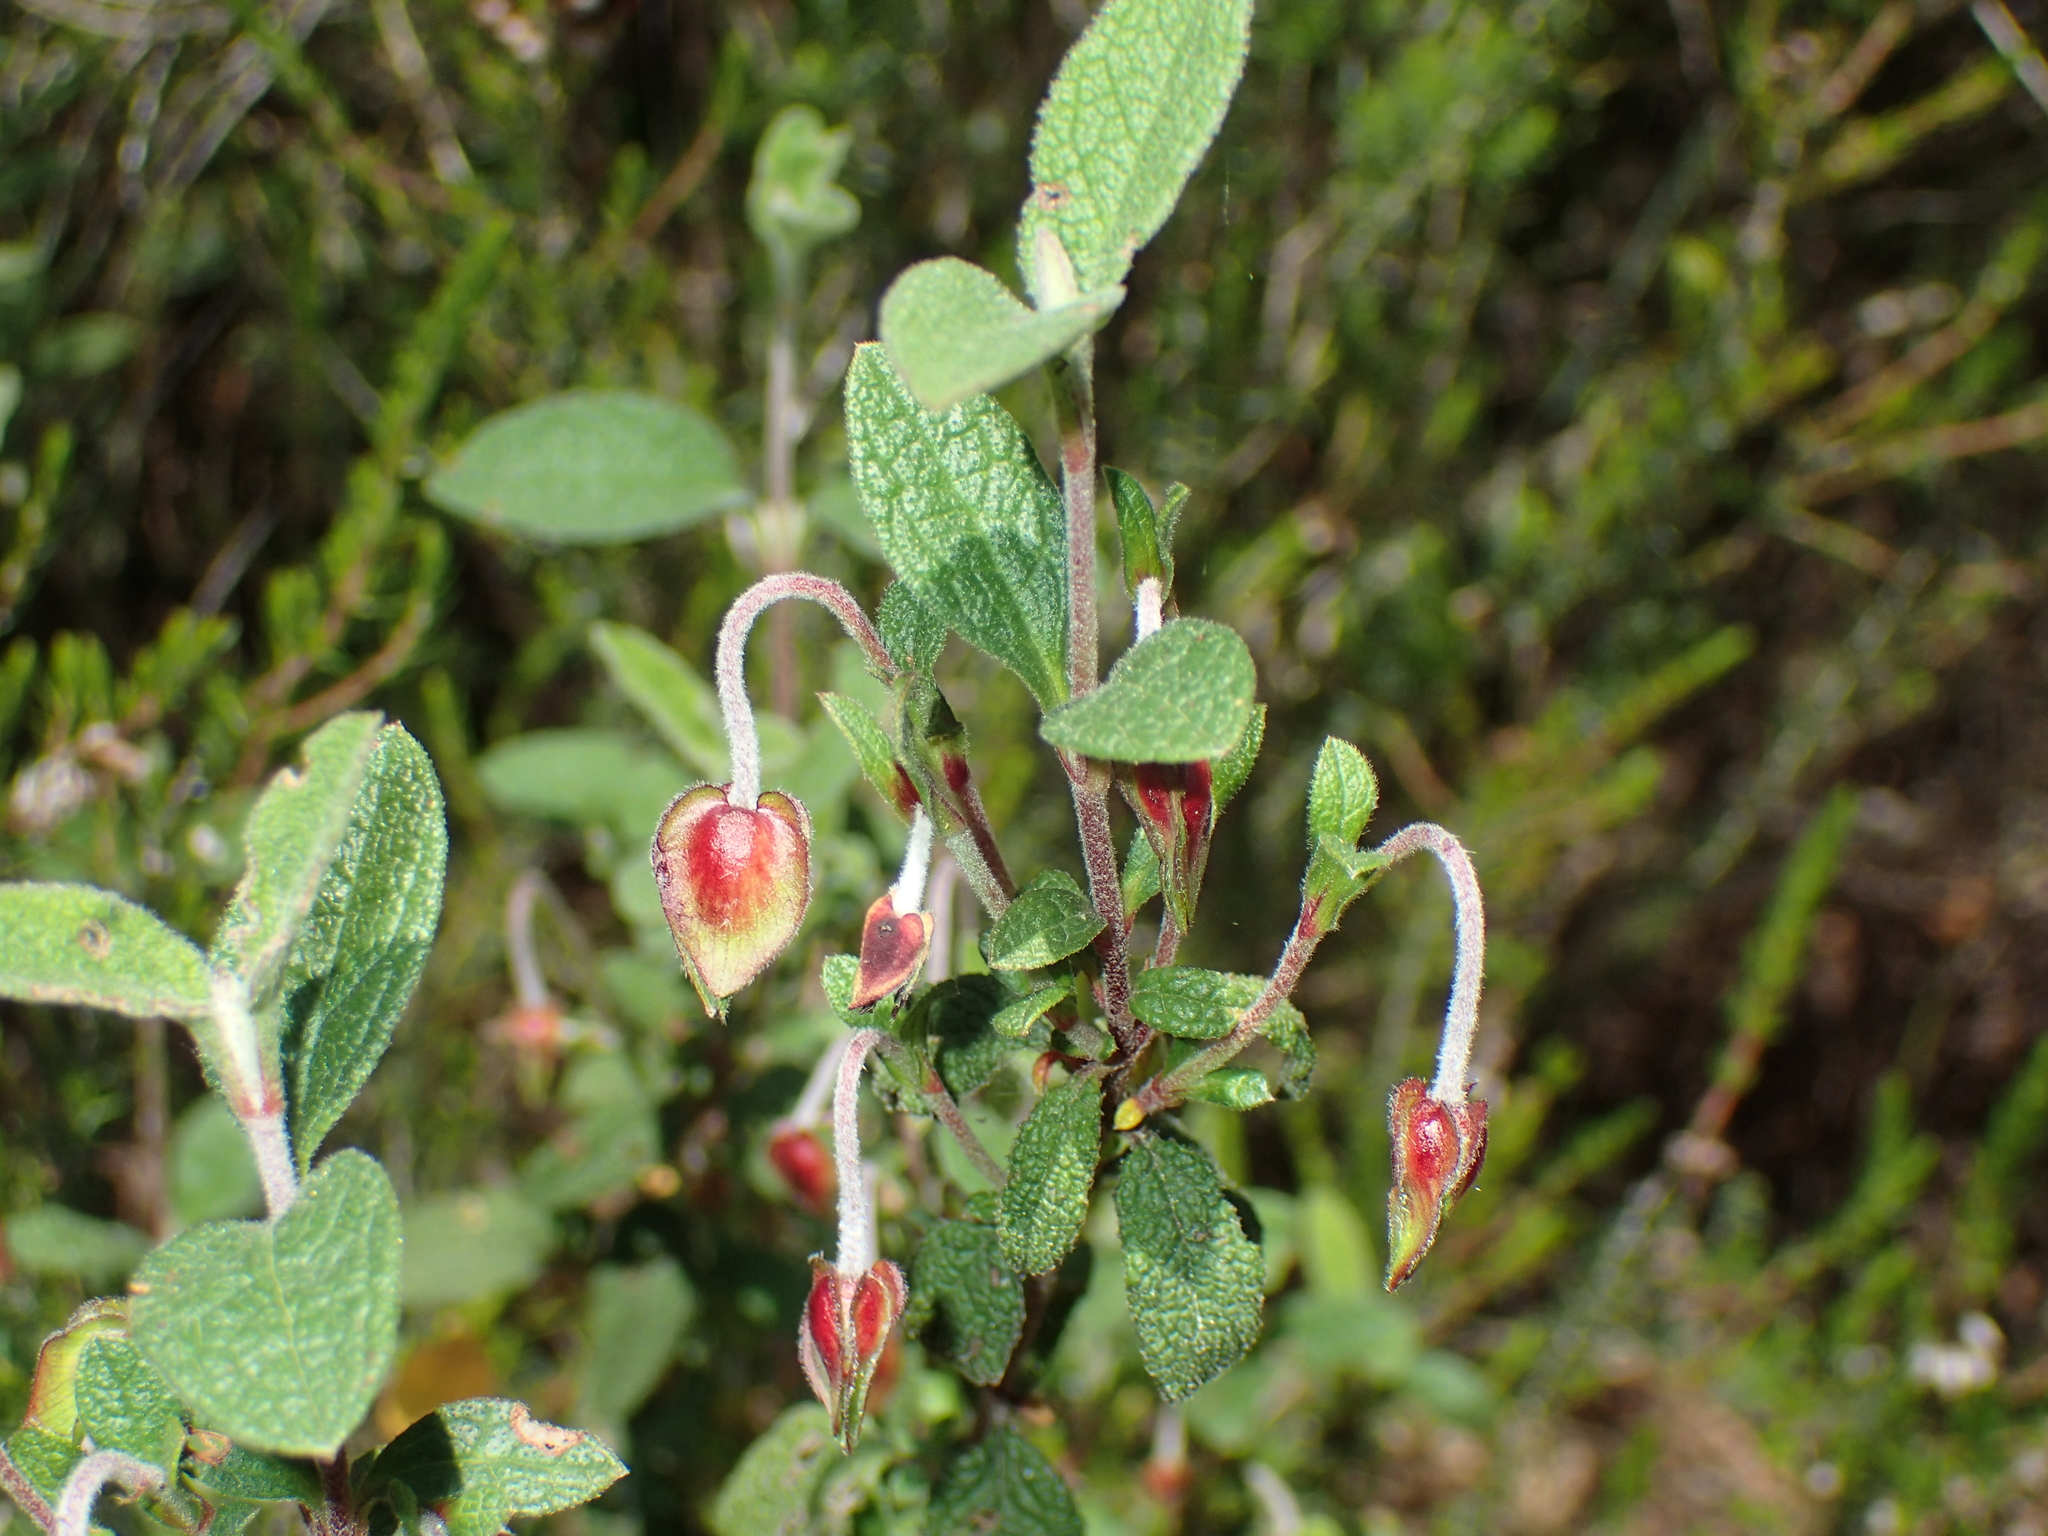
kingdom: Plantae
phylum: Tracheophyta
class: Magnoliopsida
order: Malvales
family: Cistaceae
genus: Cistus
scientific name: Cistus salviifolius
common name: Salvia cistus
